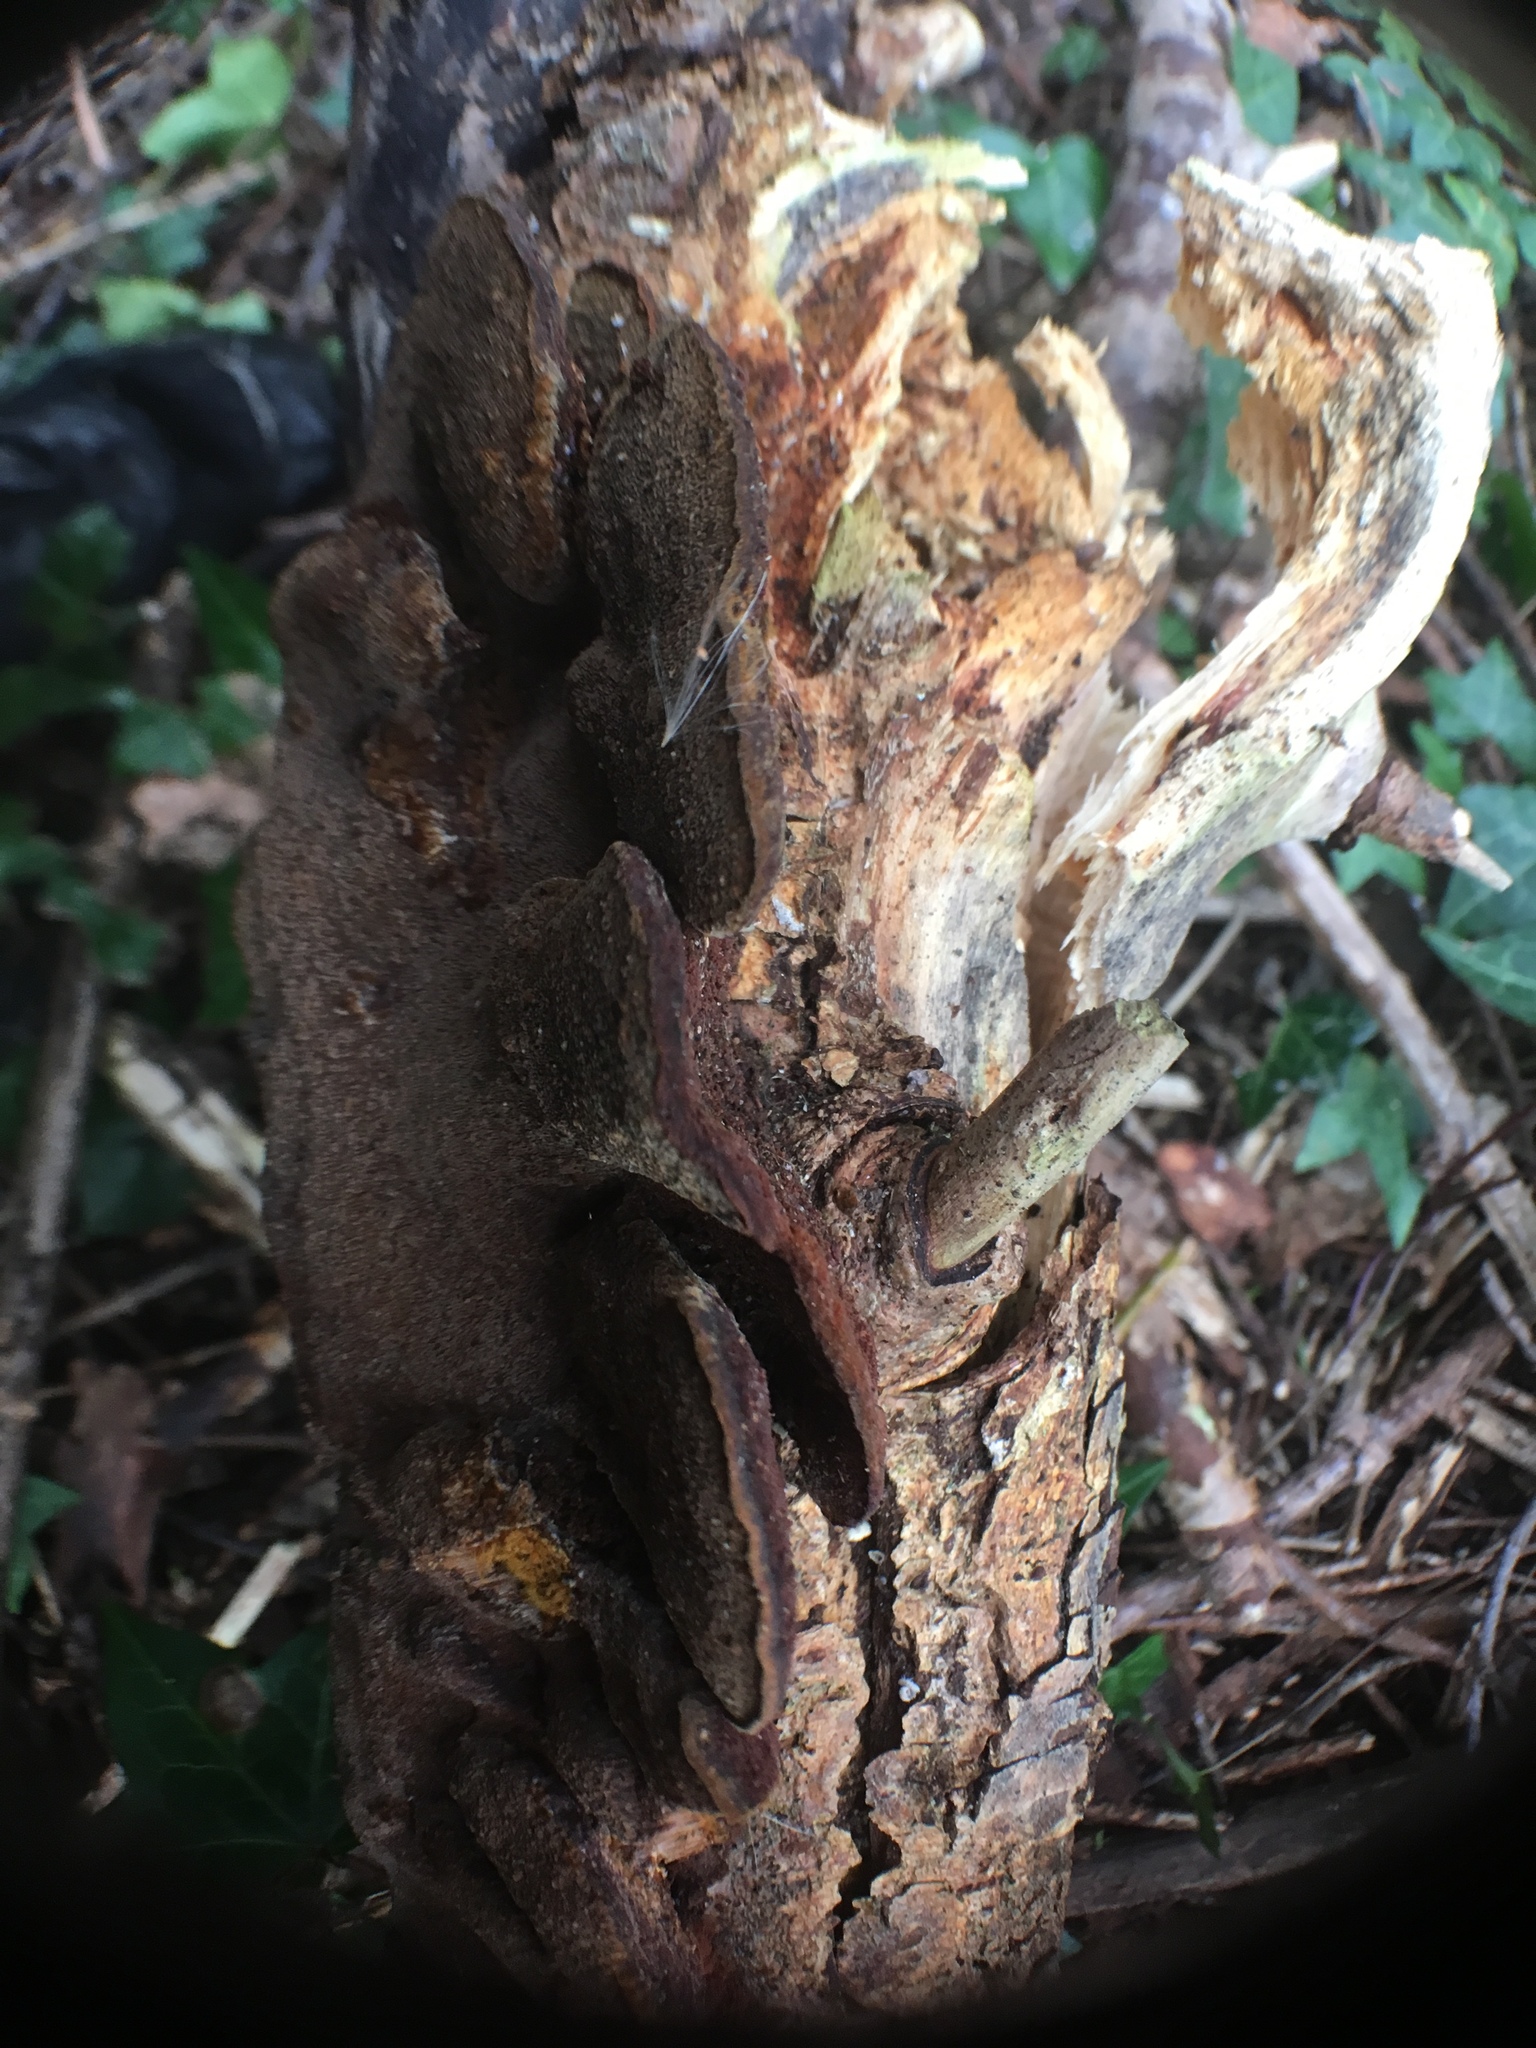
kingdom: Fungi
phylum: Basidiomycota
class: Agaricomycetes
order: Hymenochaetales
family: Hymenochaetaceae
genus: Phellinus
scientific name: Phellinus gilvus
